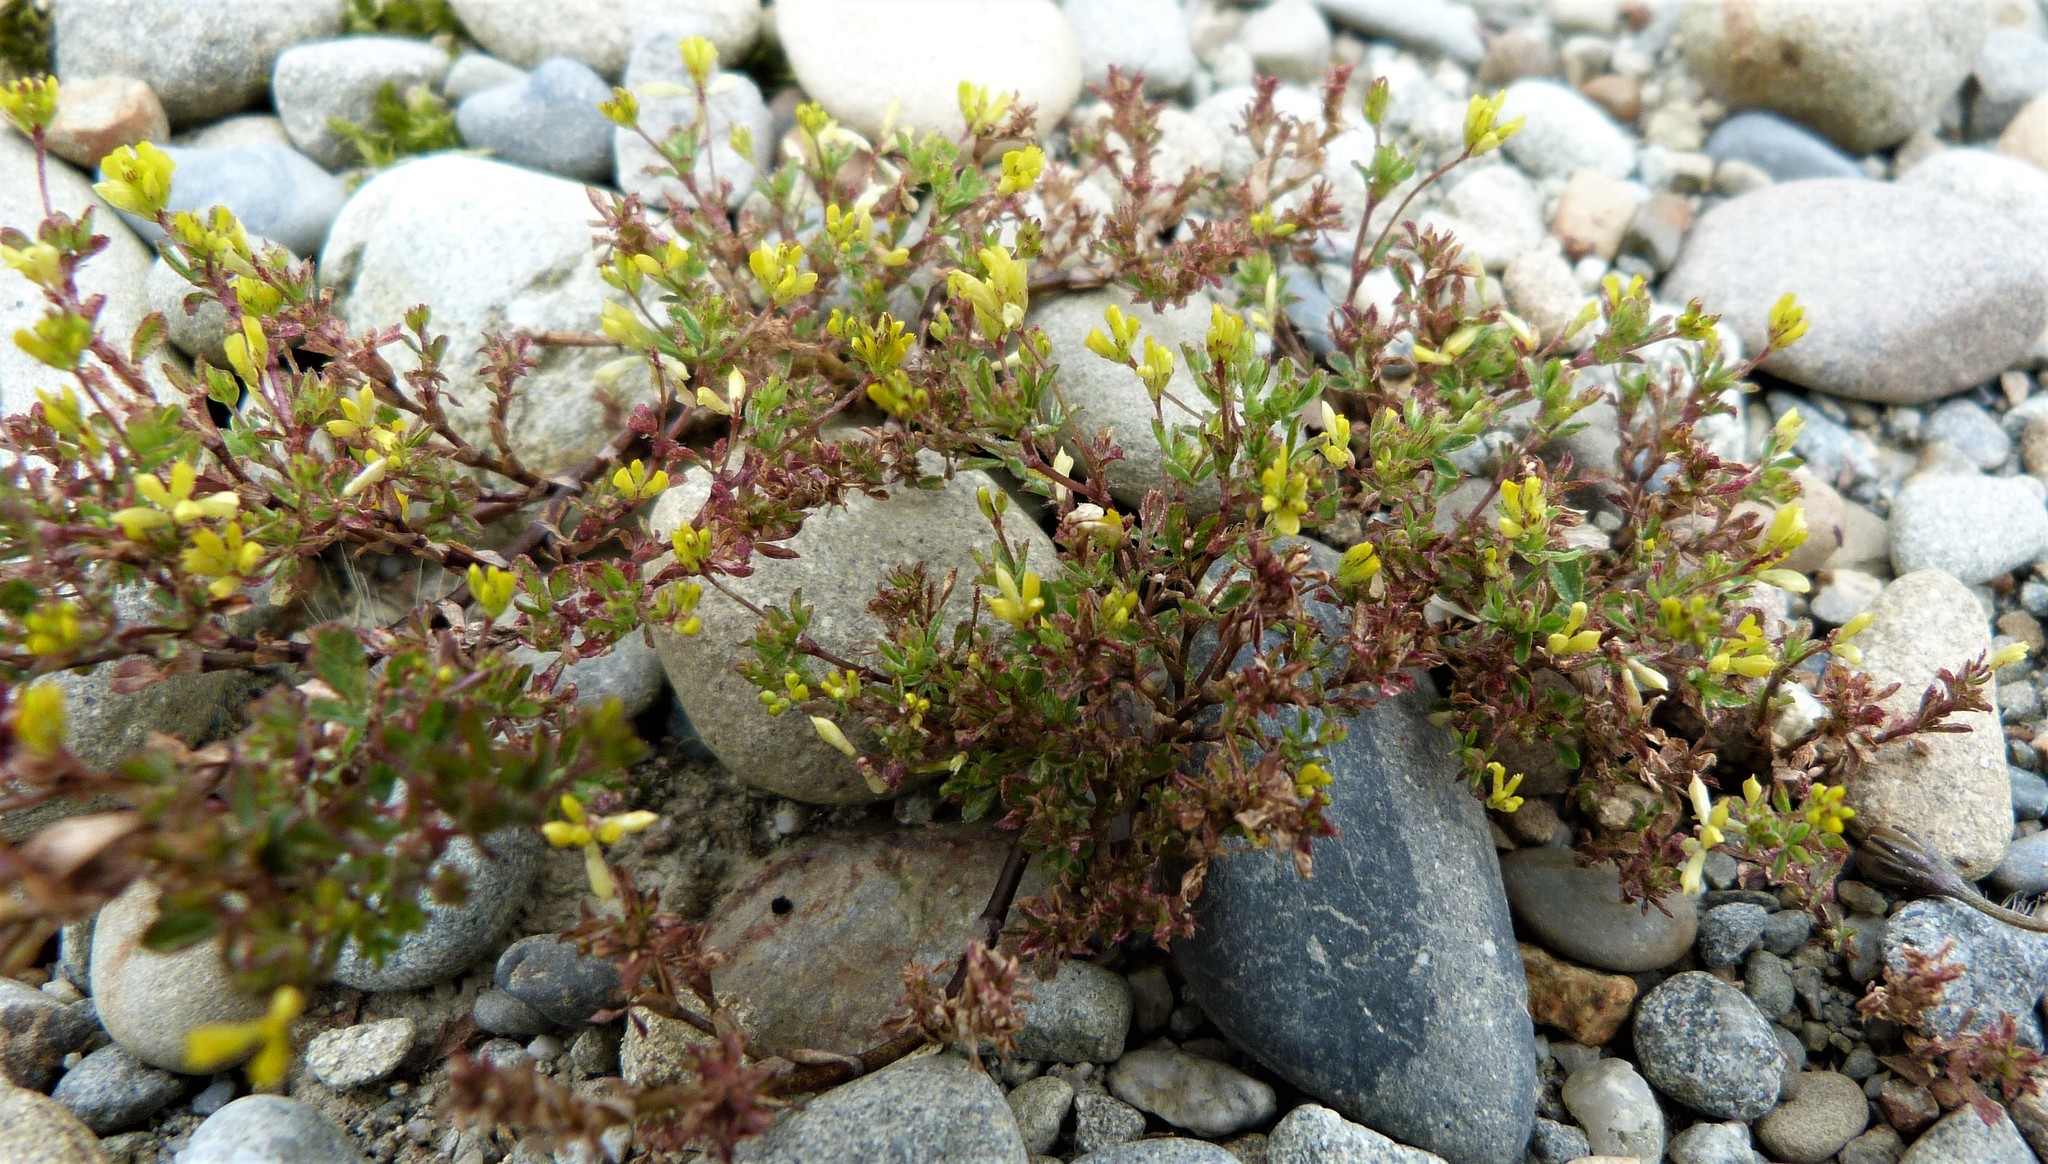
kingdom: Plantae
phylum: Tracheophyta
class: Magnoliopsida
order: Fabales
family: Fabaceae
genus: Trifolium
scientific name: Trifolium dubium
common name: Suckling clover
